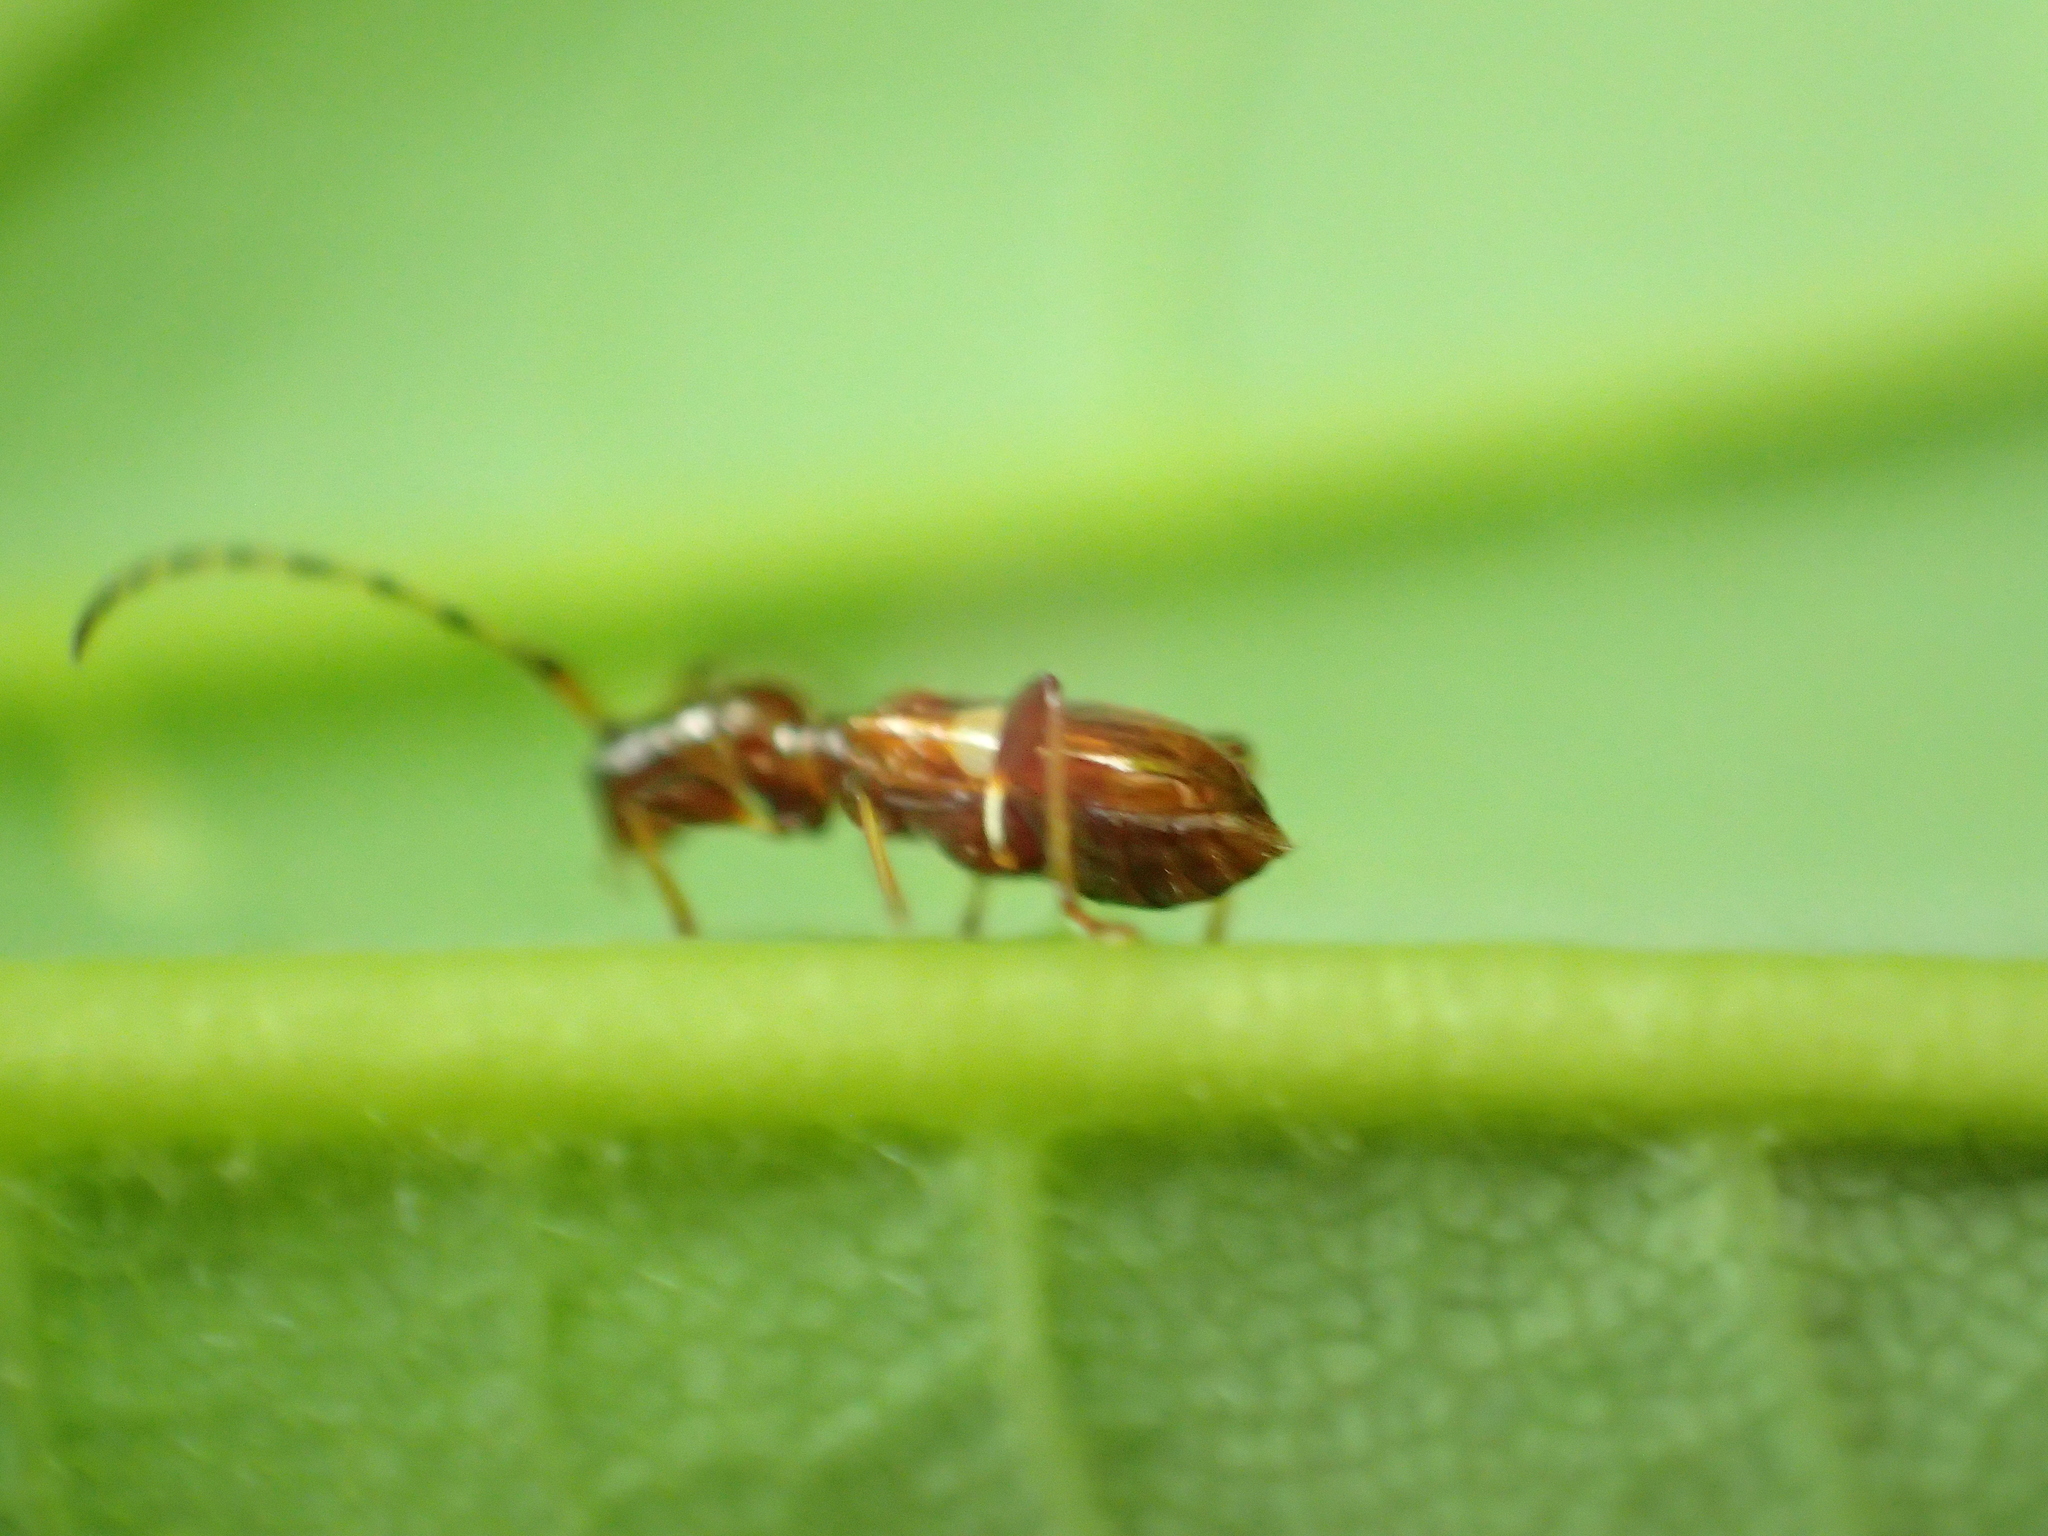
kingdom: Animalia
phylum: Arthropoda
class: Insecta
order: Coleoptera
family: Cerambycidae
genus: Zorion
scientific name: Zorion australe
